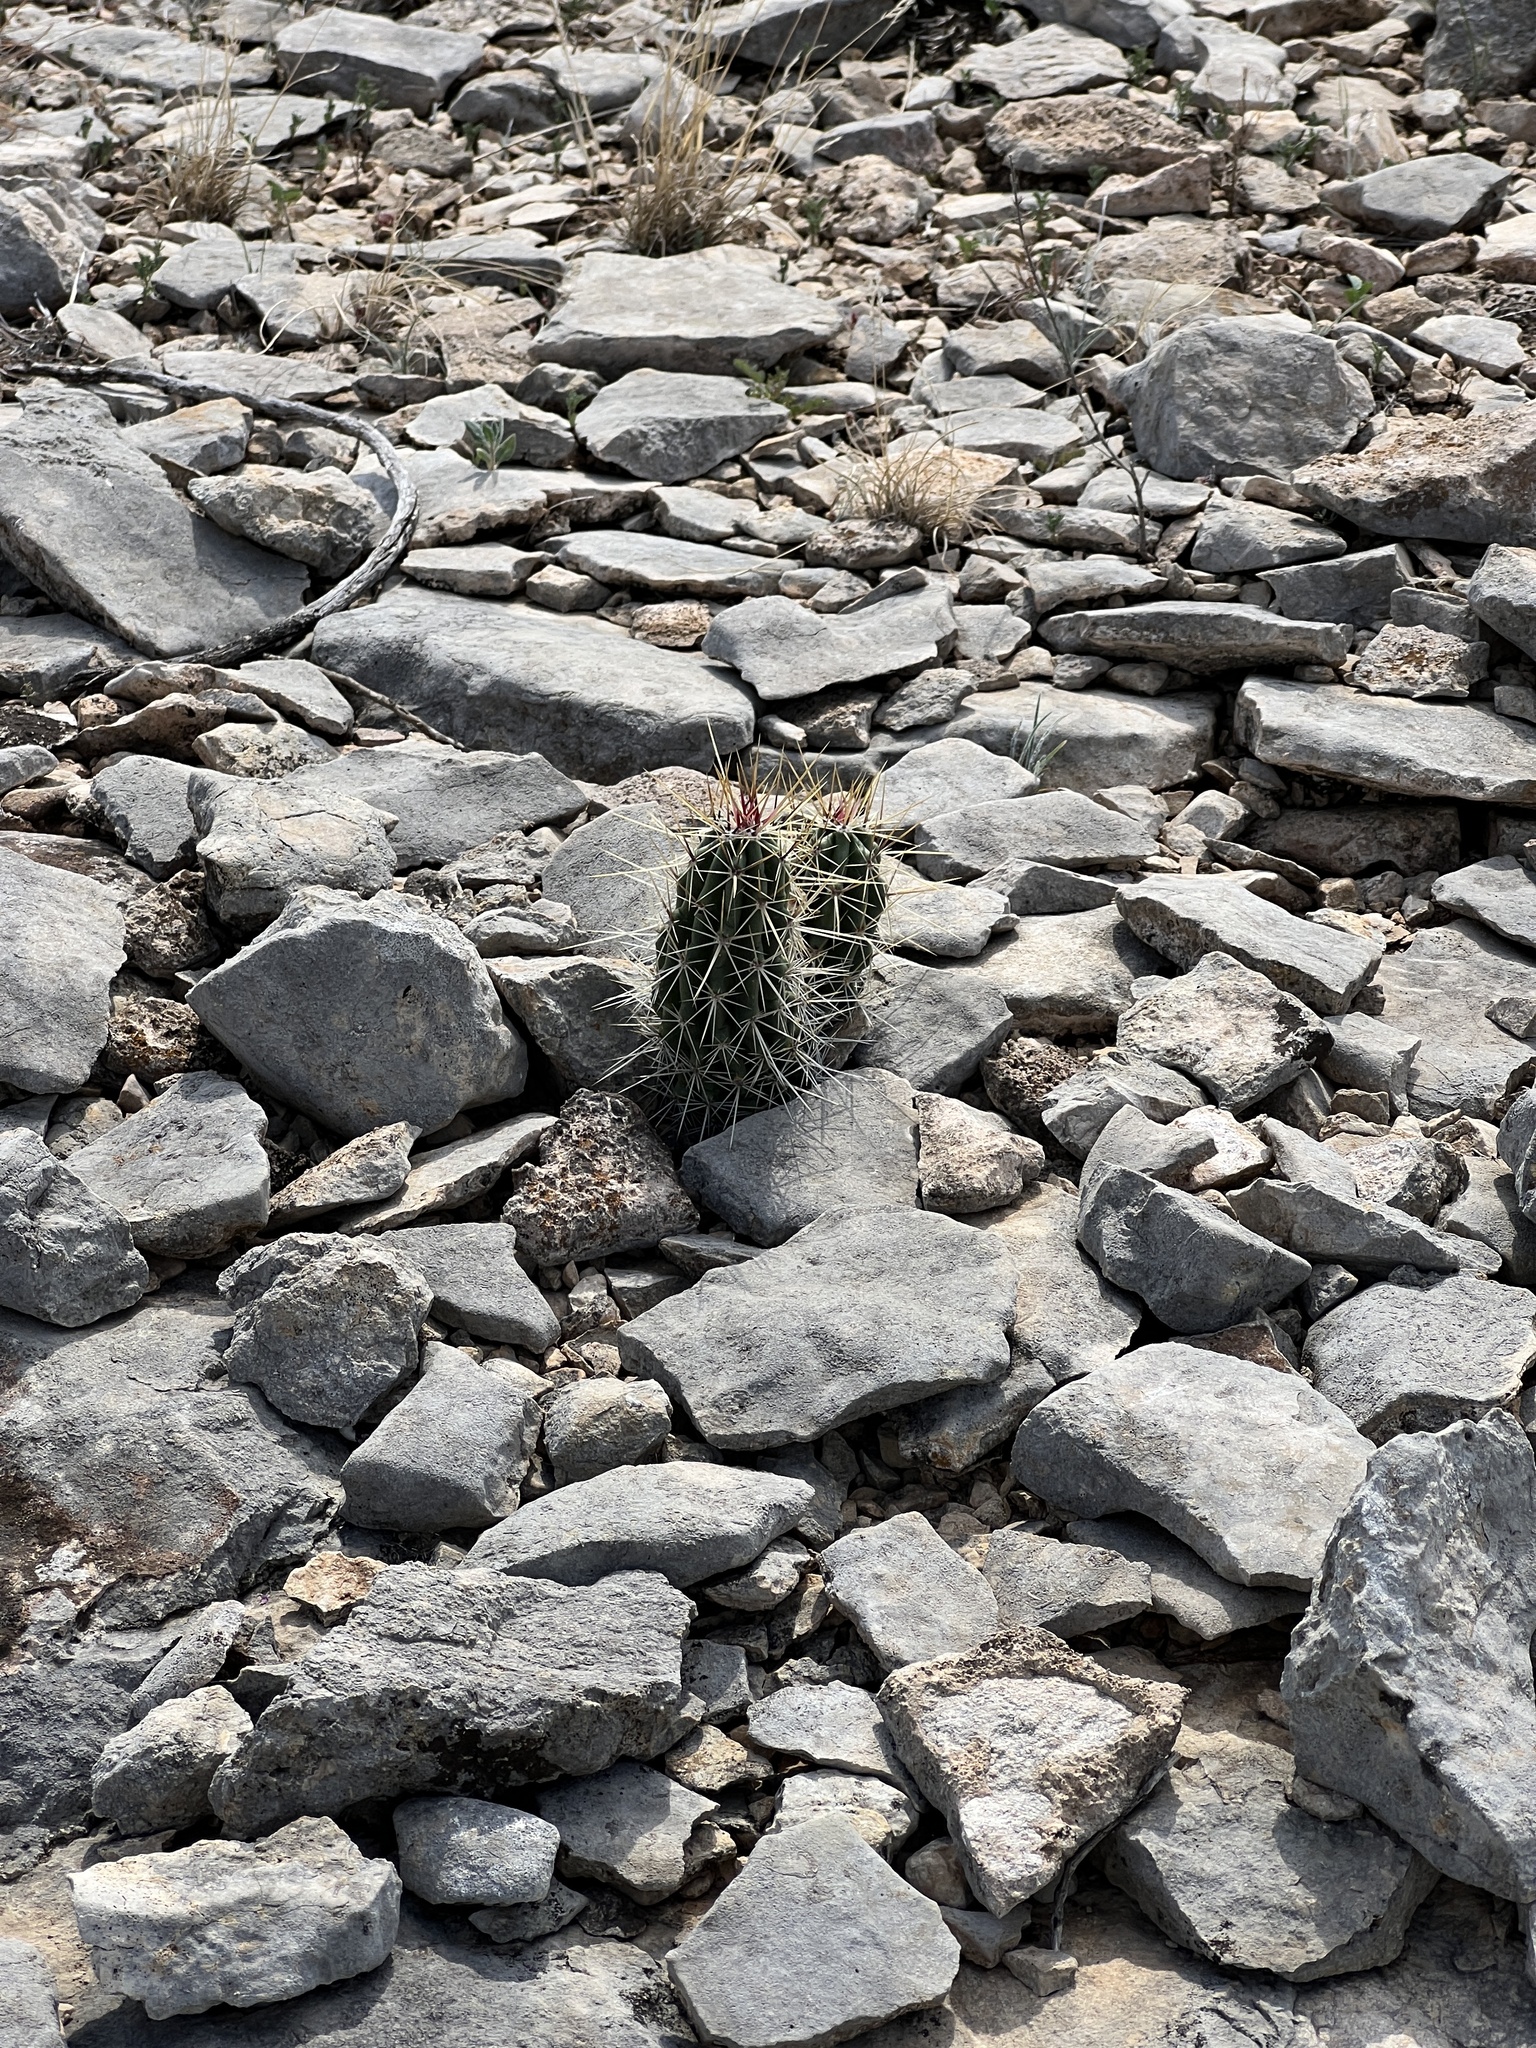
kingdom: Plantae
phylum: Tracheophyta
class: Magnoliopsida
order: Caryophyllales
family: Cactaceae
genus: Echinocereus
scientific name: Echinocereus enneacanthus
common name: Pitaya
